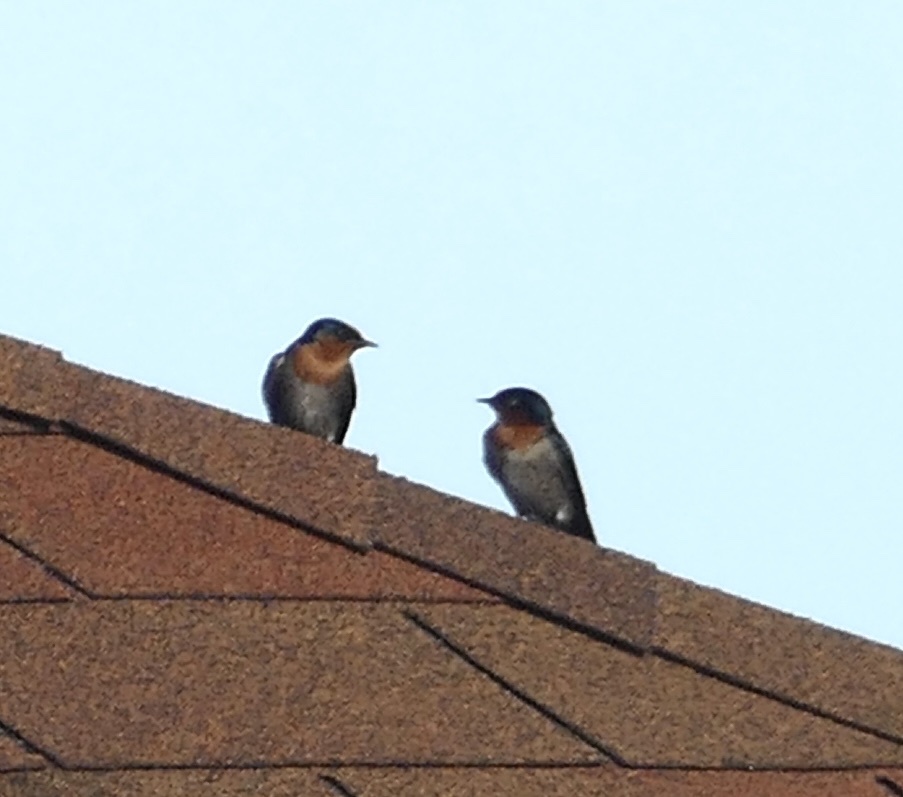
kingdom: Animalia
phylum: Chordata
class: Aves
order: Passeriformes
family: Hirundinidae
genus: Hirundo
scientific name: Hirundo tahitica
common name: Pacific swallow
